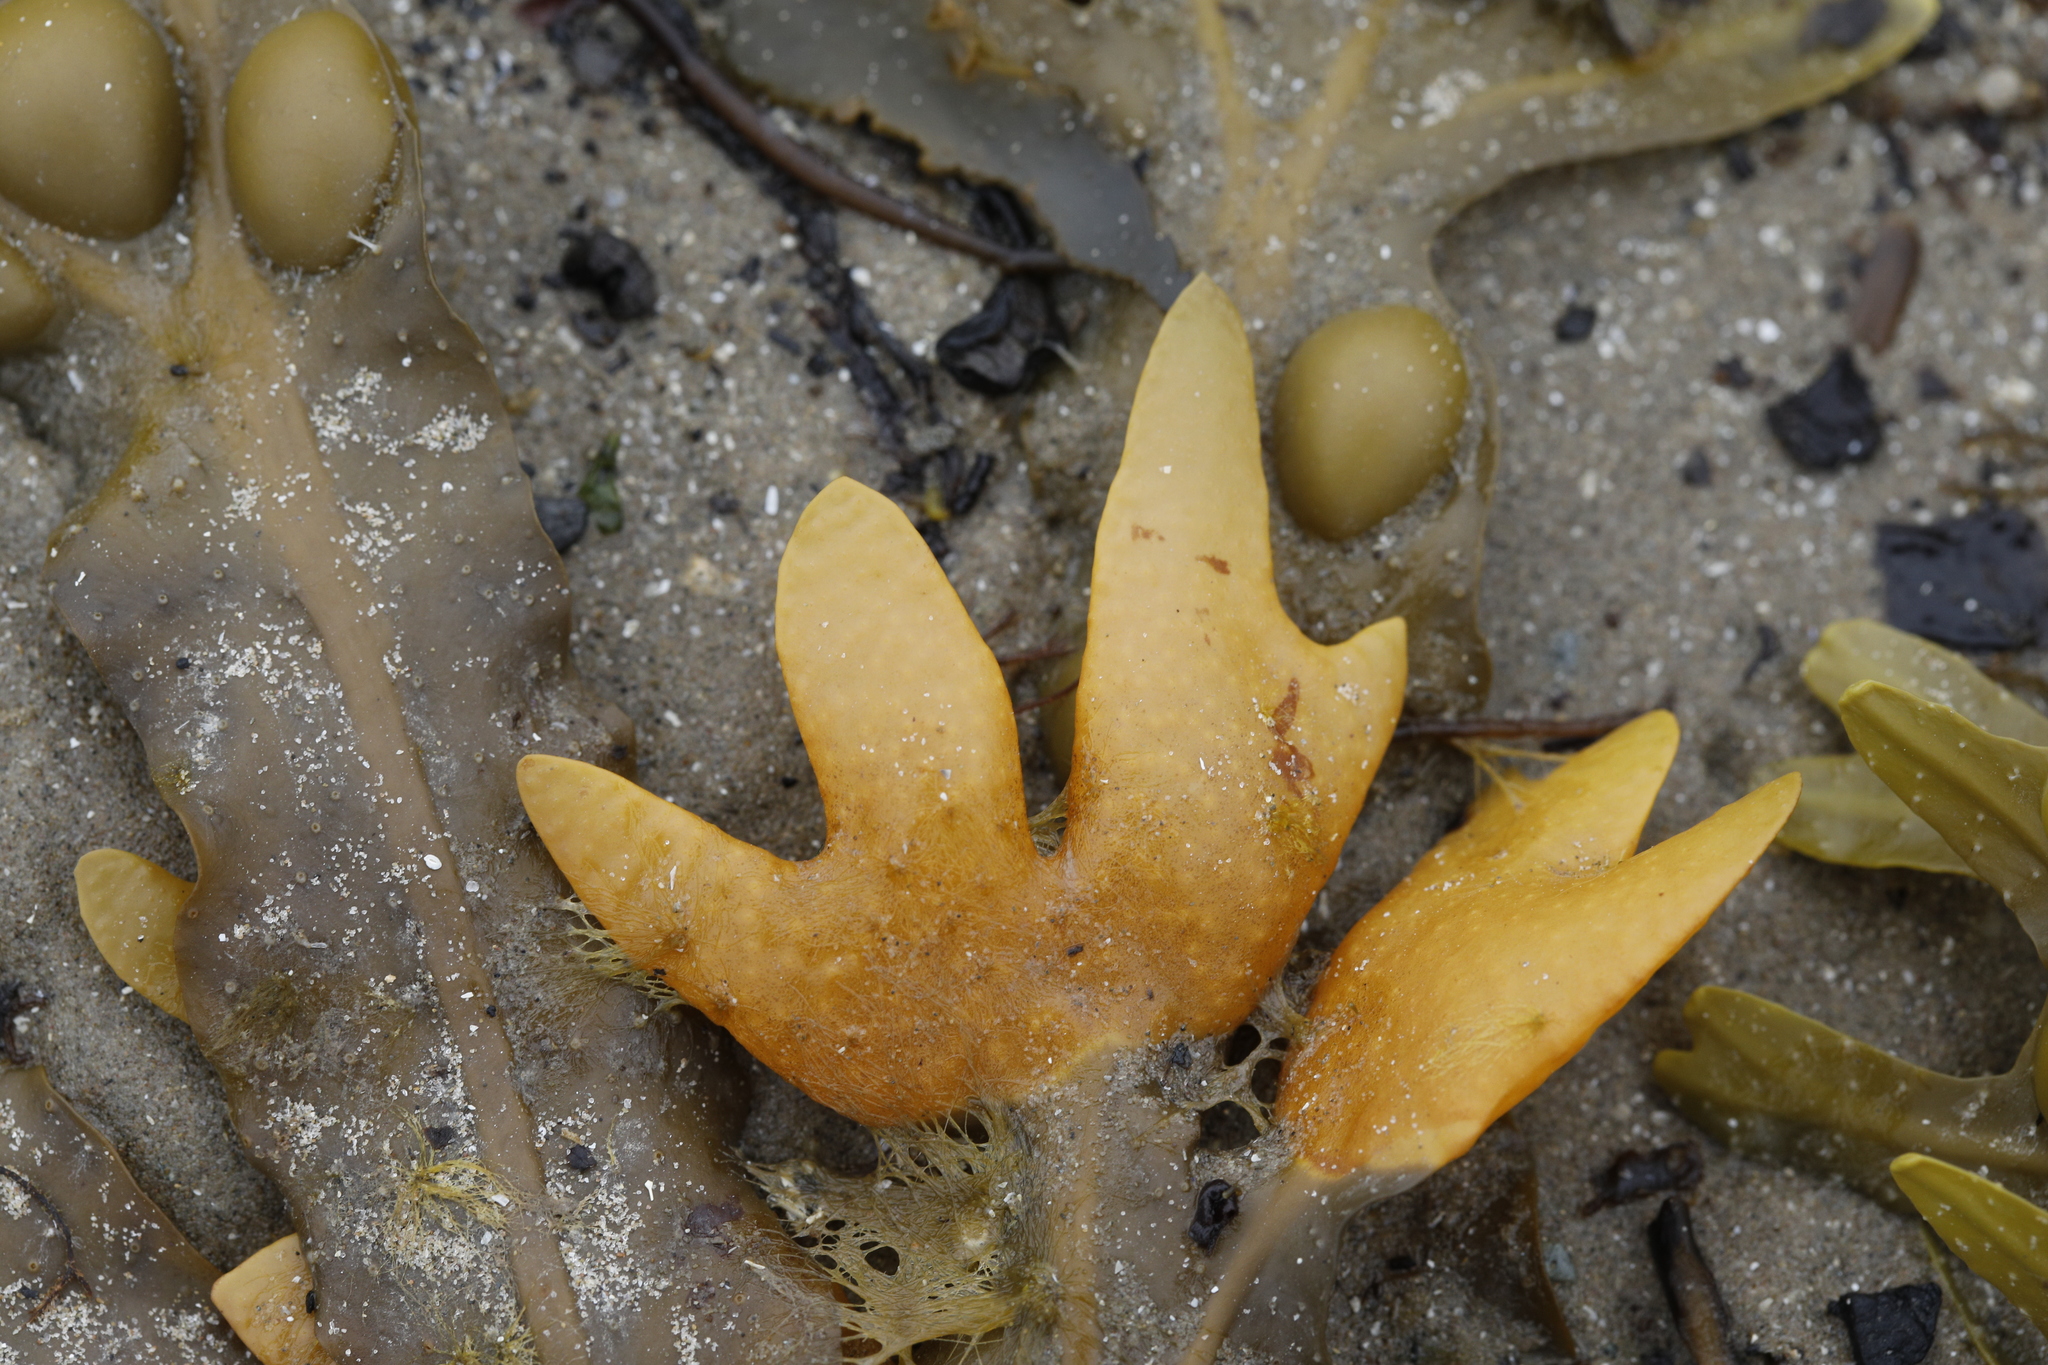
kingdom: Chromista
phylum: Ochrophyta
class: Phaeophyceae
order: Fucales
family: Fucaceae
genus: Fucus
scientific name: Fucus vesiculosus
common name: Bladder wrack
